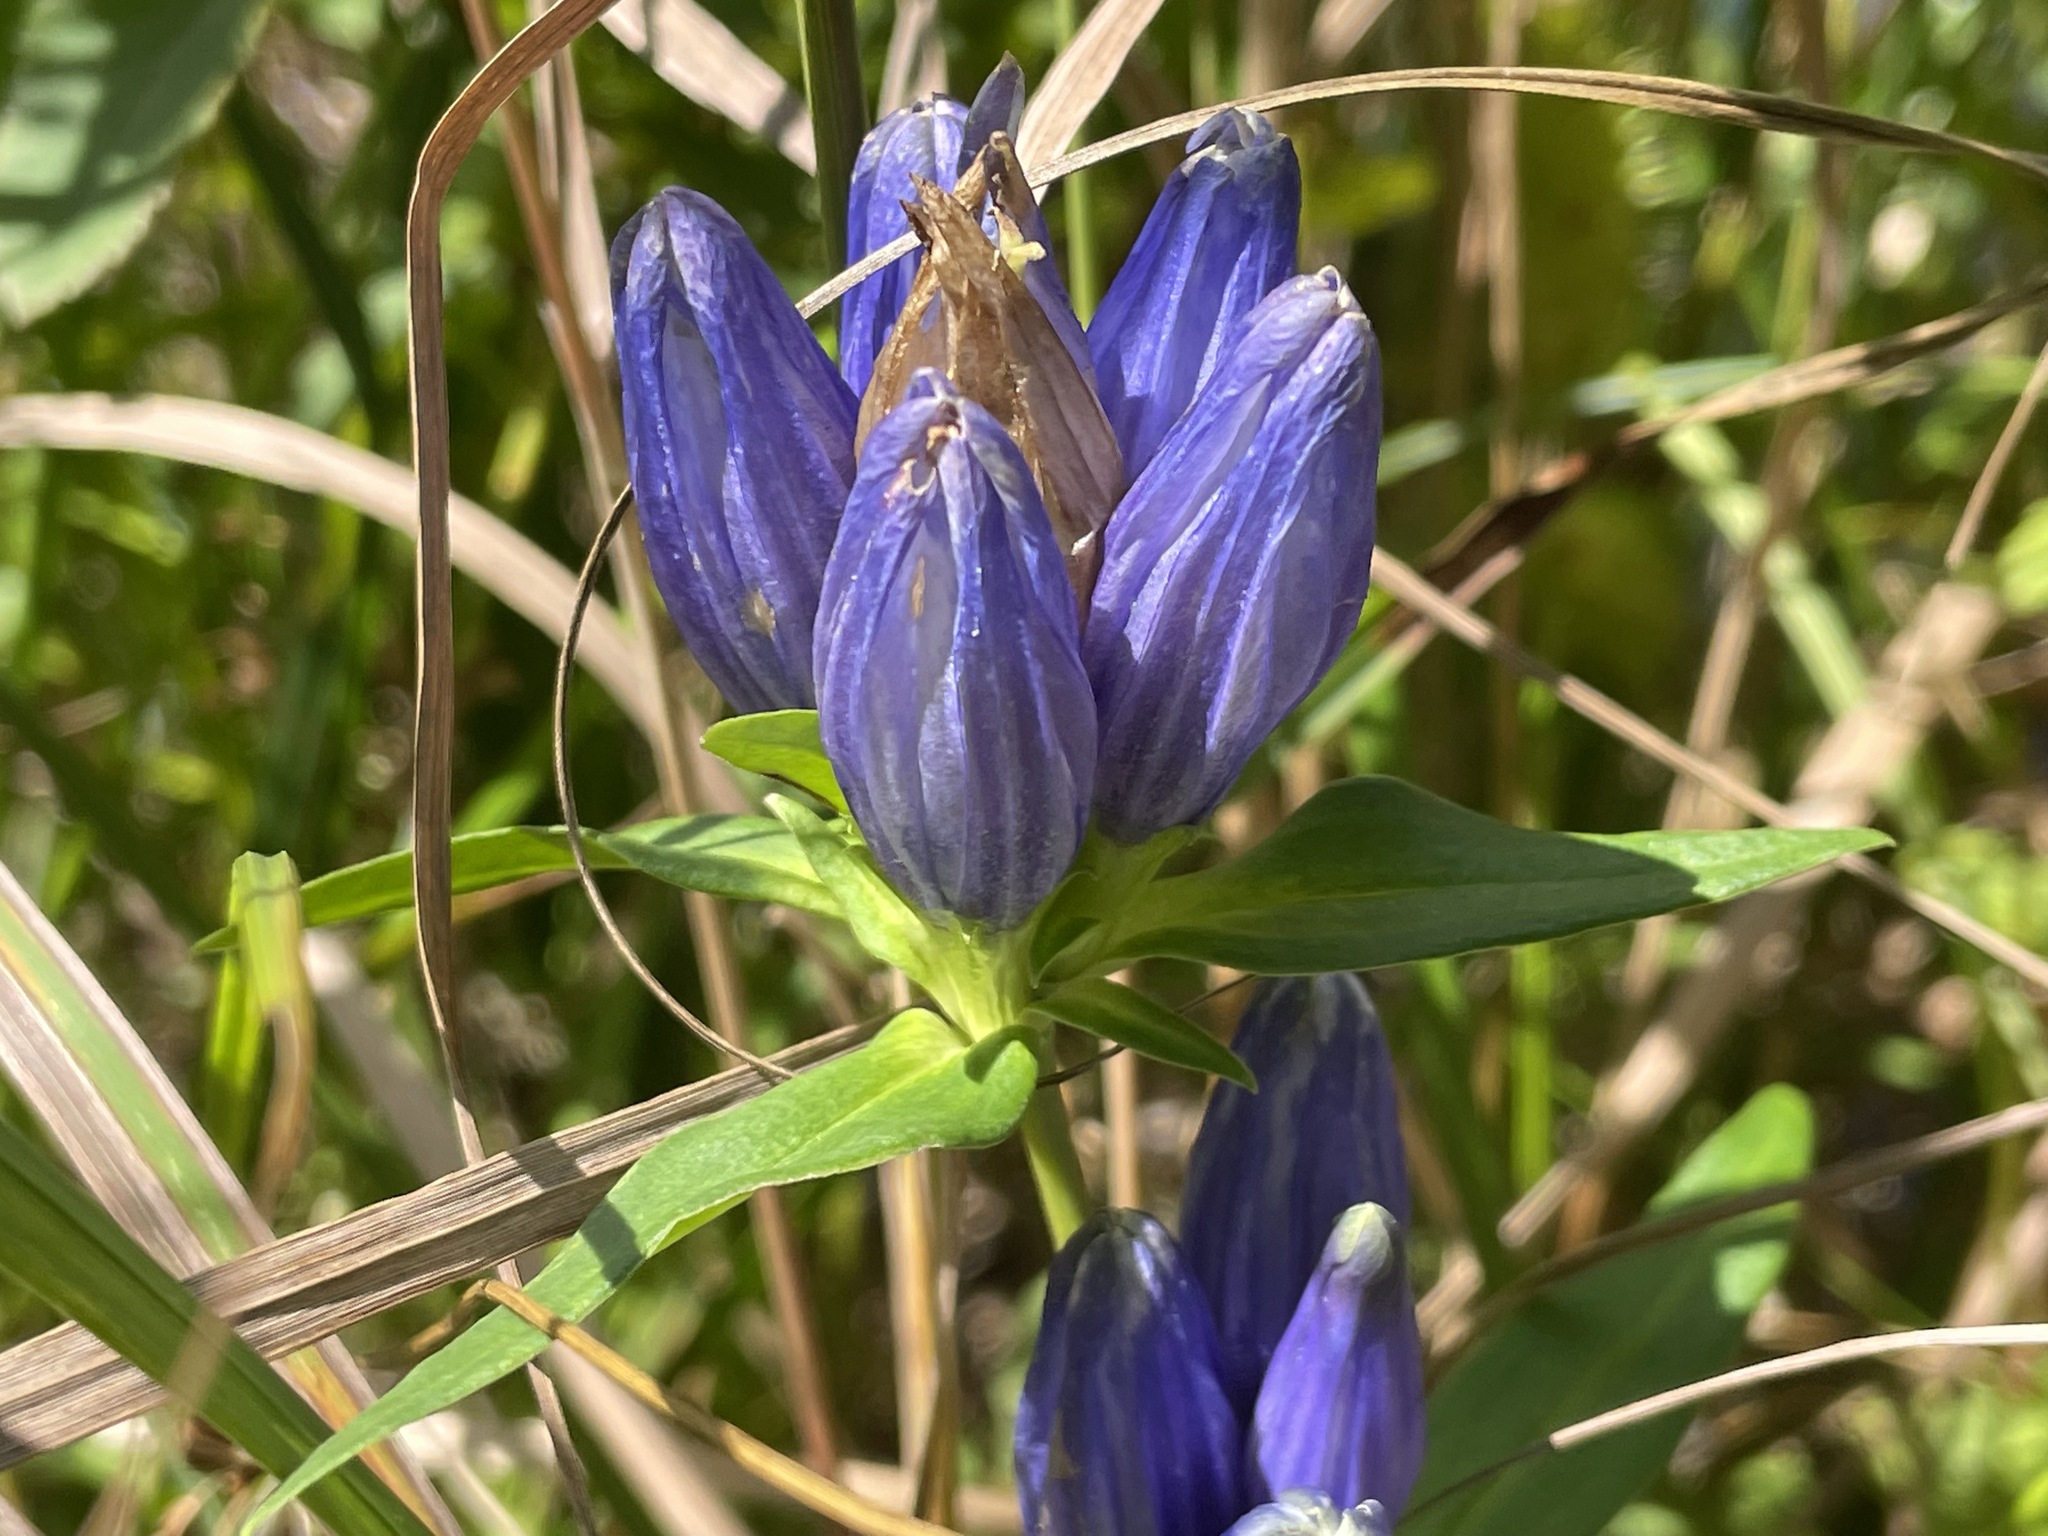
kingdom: Plantae
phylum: Tracheophyta
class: Magnoliopsida
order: Gentianales
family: Gentianaceae
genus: Gentiana
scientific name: Gentiana linearis
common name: Bastard gentian
